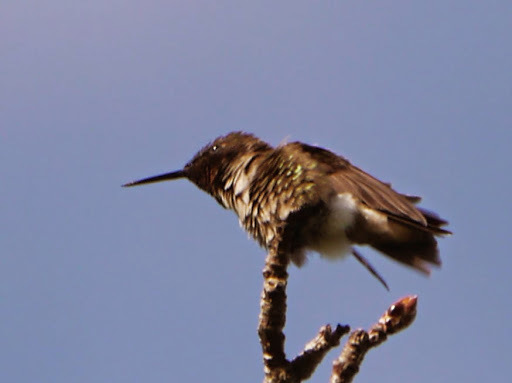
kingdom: Animalia
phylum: Chordata
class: Aves
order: Apodiformes
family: Trochilidae
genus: Archilochus
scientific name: Archilochus colubris
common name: Ruby-throated hummingbird
